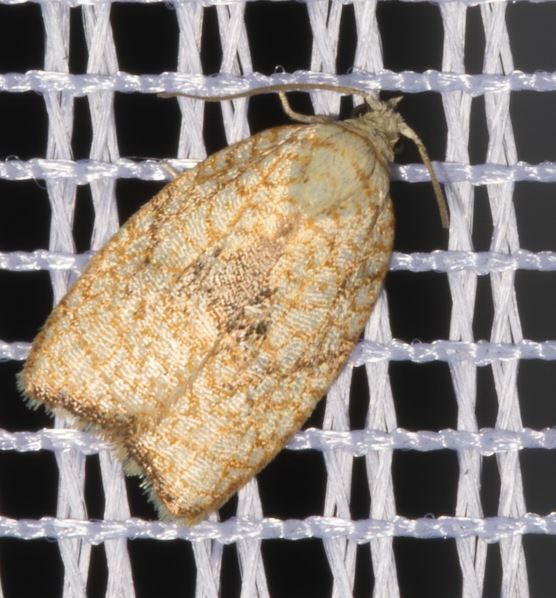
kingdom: Animalia
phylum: Arthropoda
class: Insecta
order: Lepidoptera
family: Tortricidae
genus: Acleris
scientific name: Acleris forsskaleana
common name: Maple button
